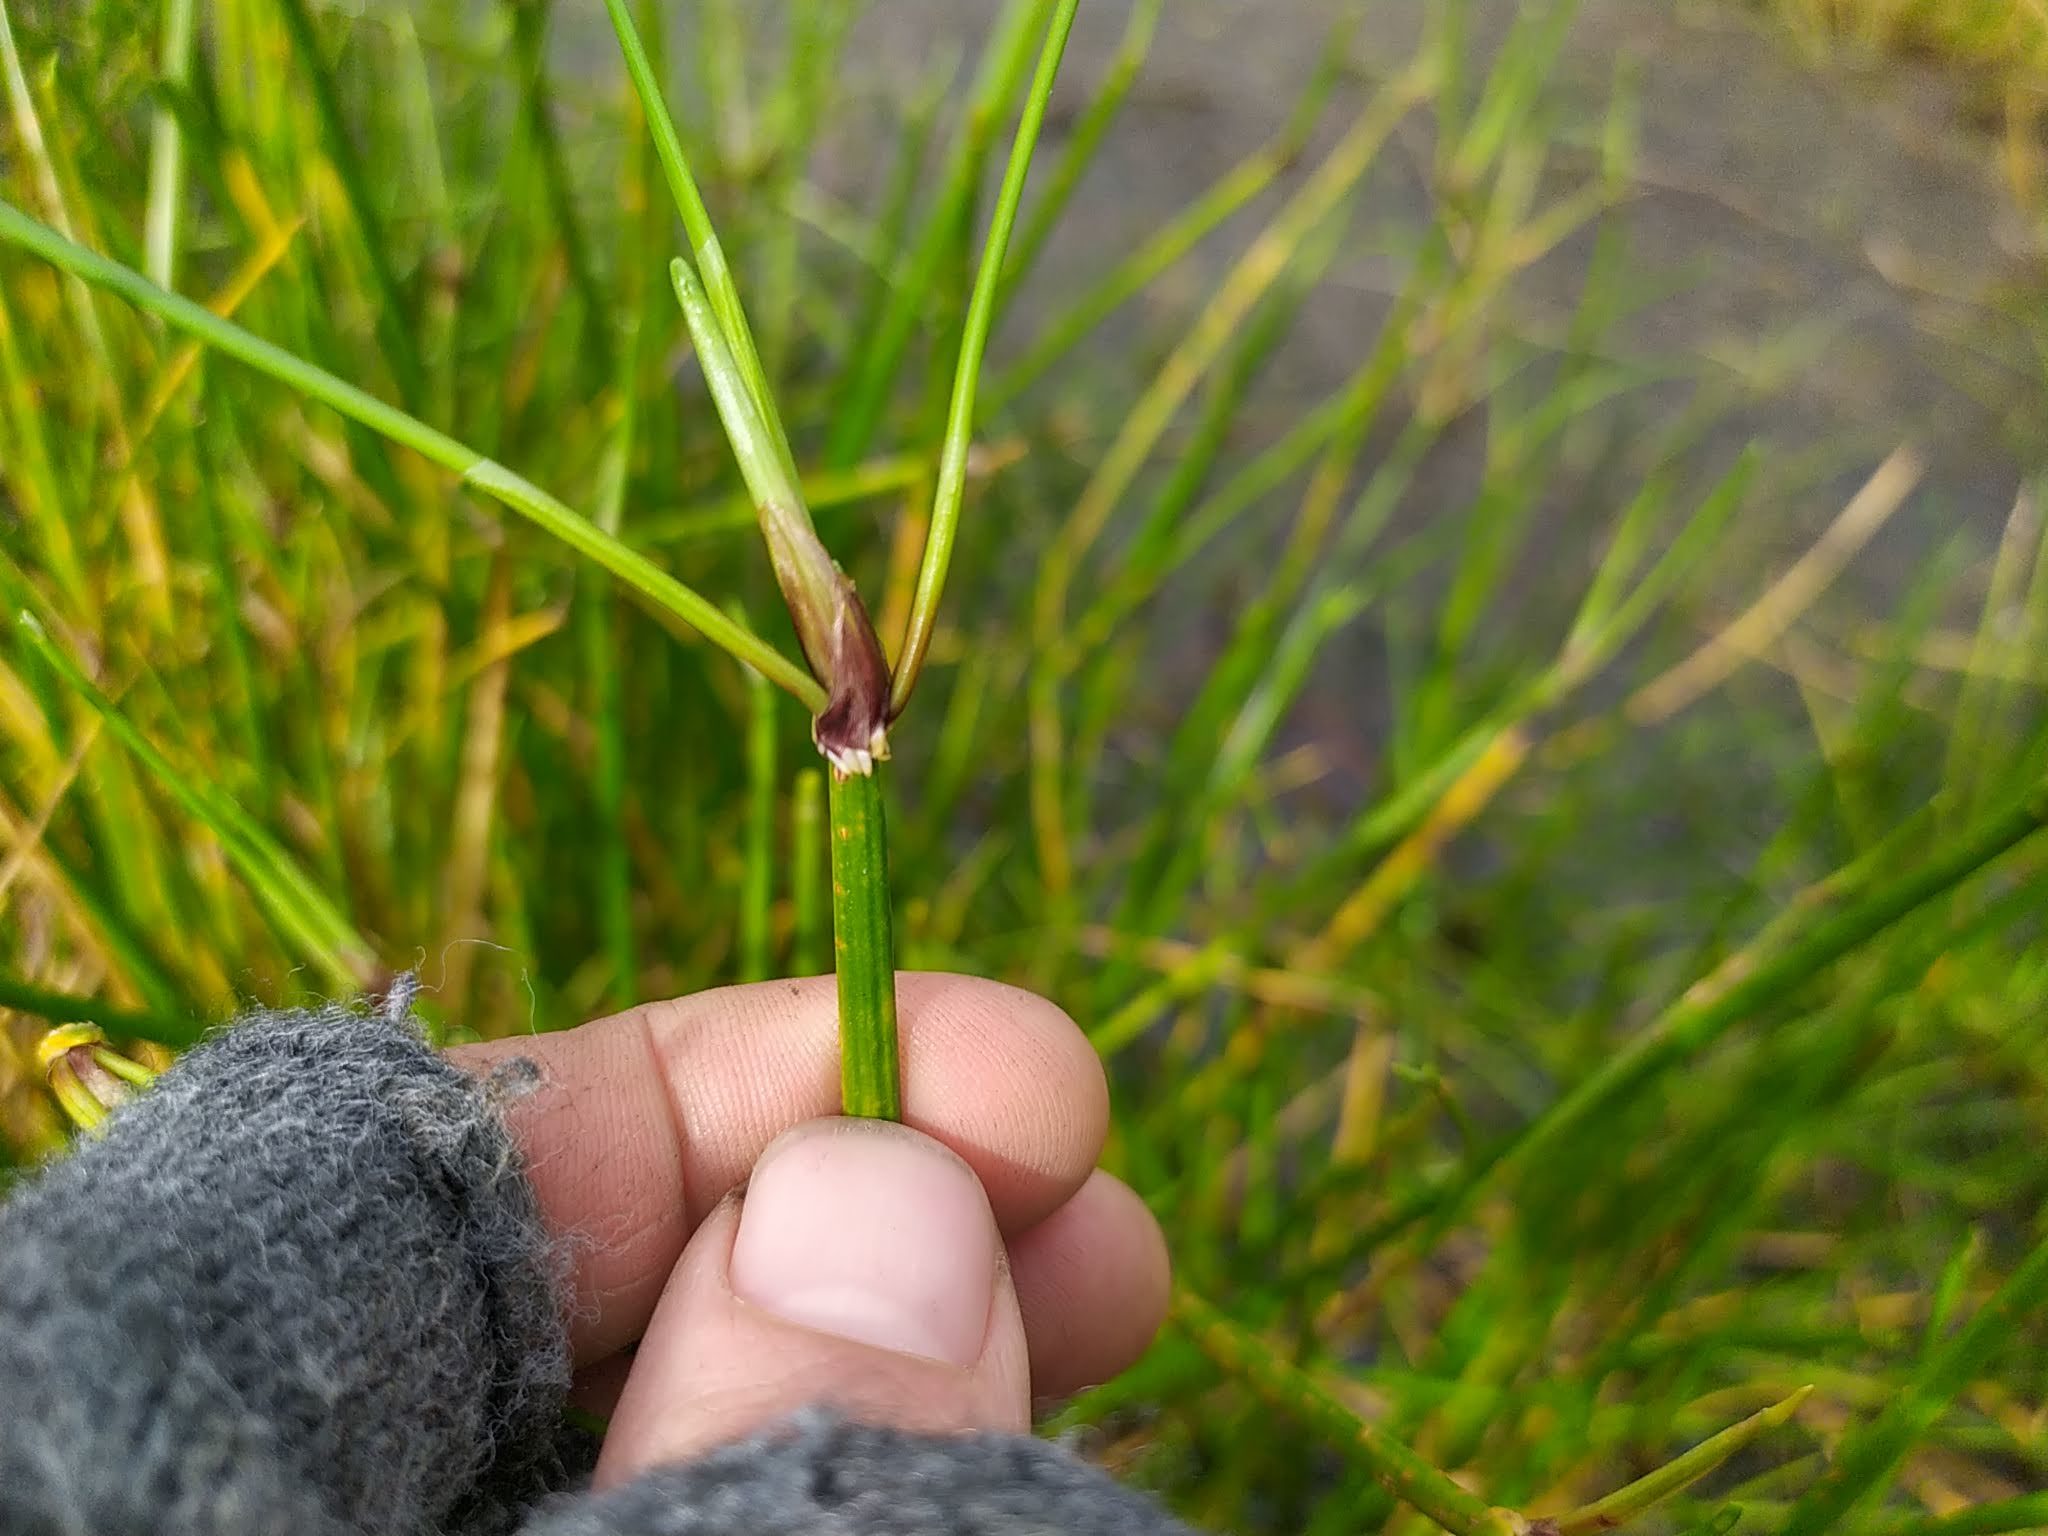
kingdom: Plantae
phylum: Tracheophyta
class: Liliopsida
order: Poales
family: Cyperaceae
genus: Isolepis
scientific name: Isolepis prolifera
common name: Proliferating bulrush
